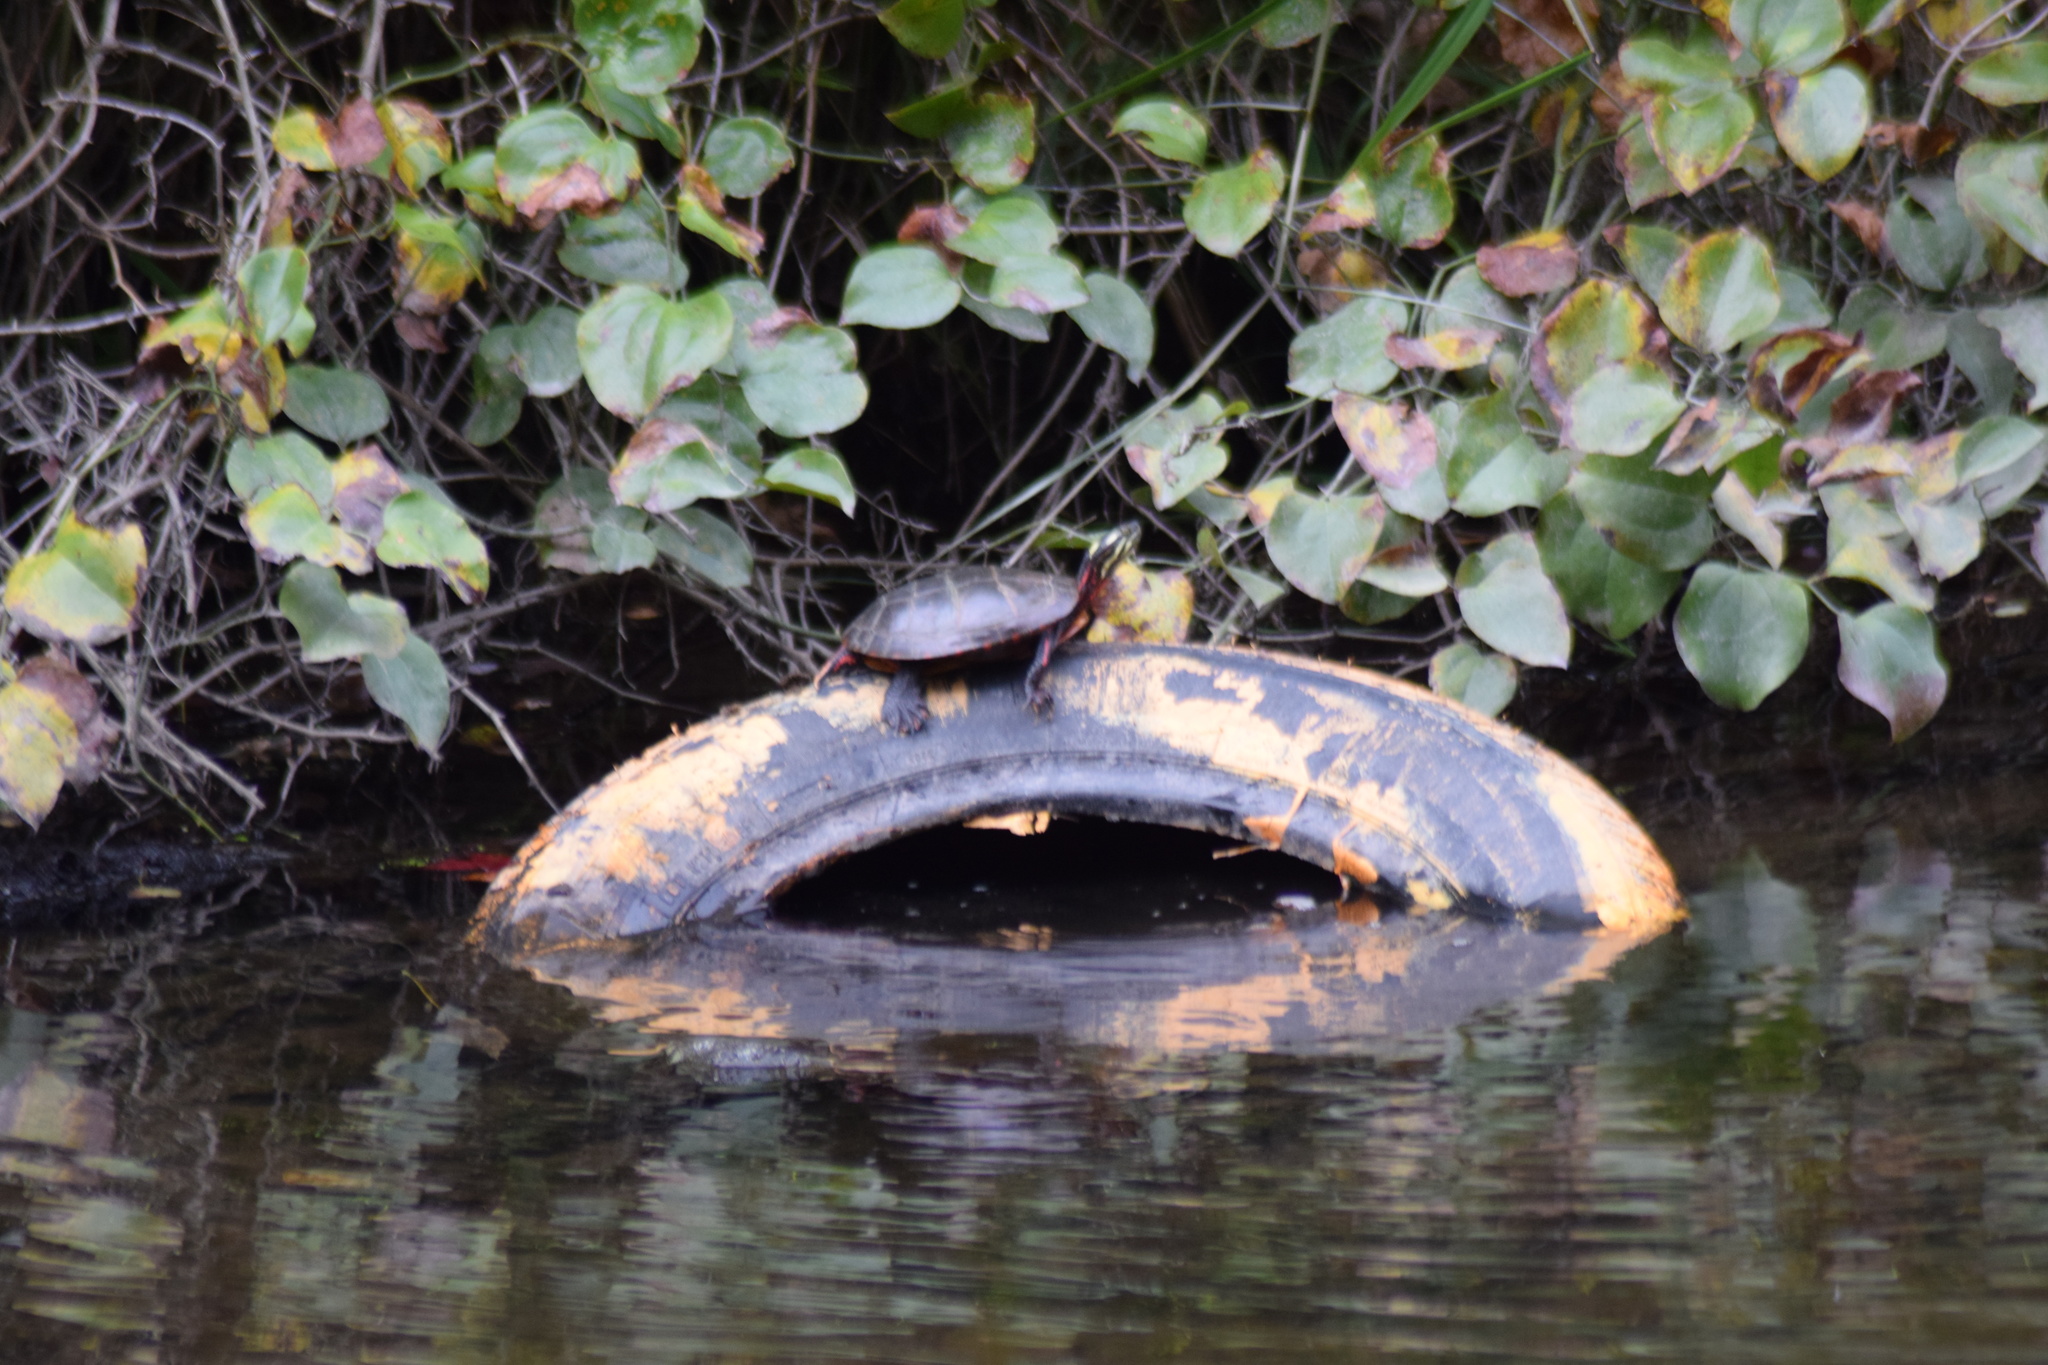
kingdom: Animalia
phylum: Chordata
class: Testudines
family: Emydidae
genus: Chrysemys
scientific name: Chrysemys picta
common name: Painted turtle
